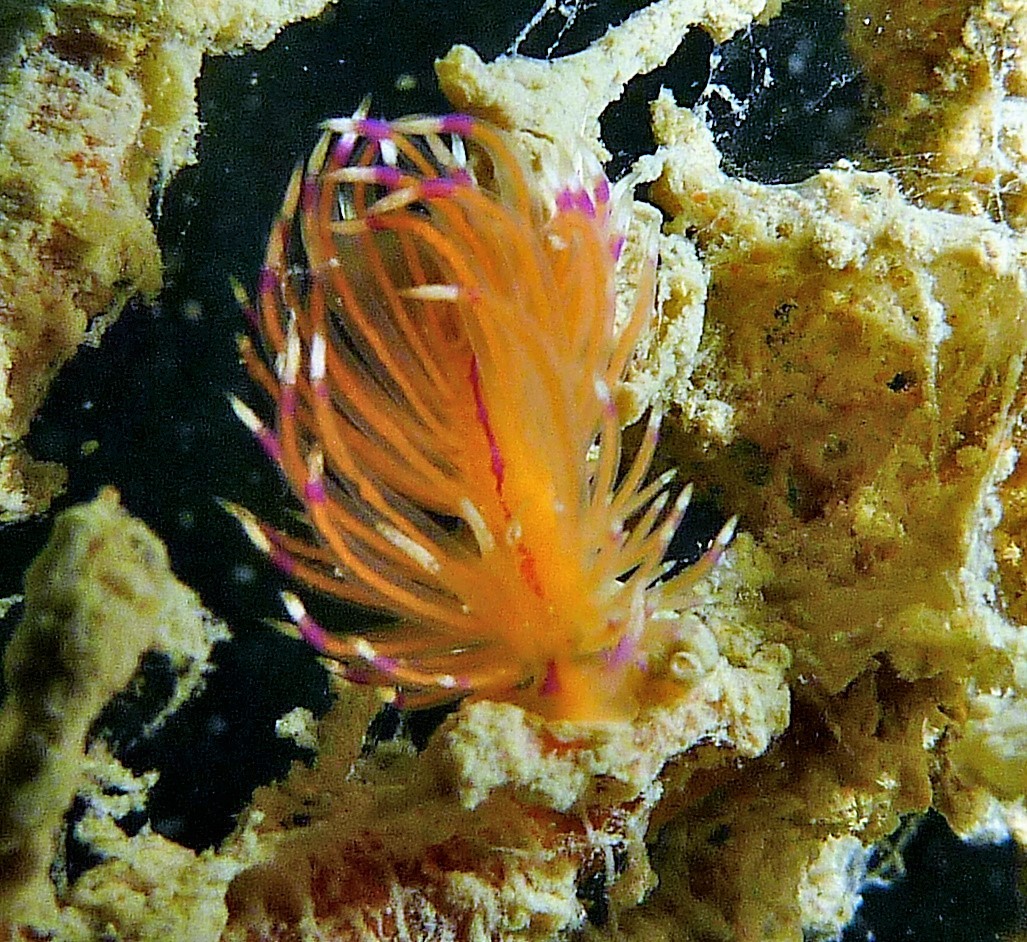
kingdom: Animalia
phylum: Mollusca
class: Gastropoda
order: Nudibranchia
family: Unidentiidae
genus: Unidentia
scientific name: Unidentia aliciae
